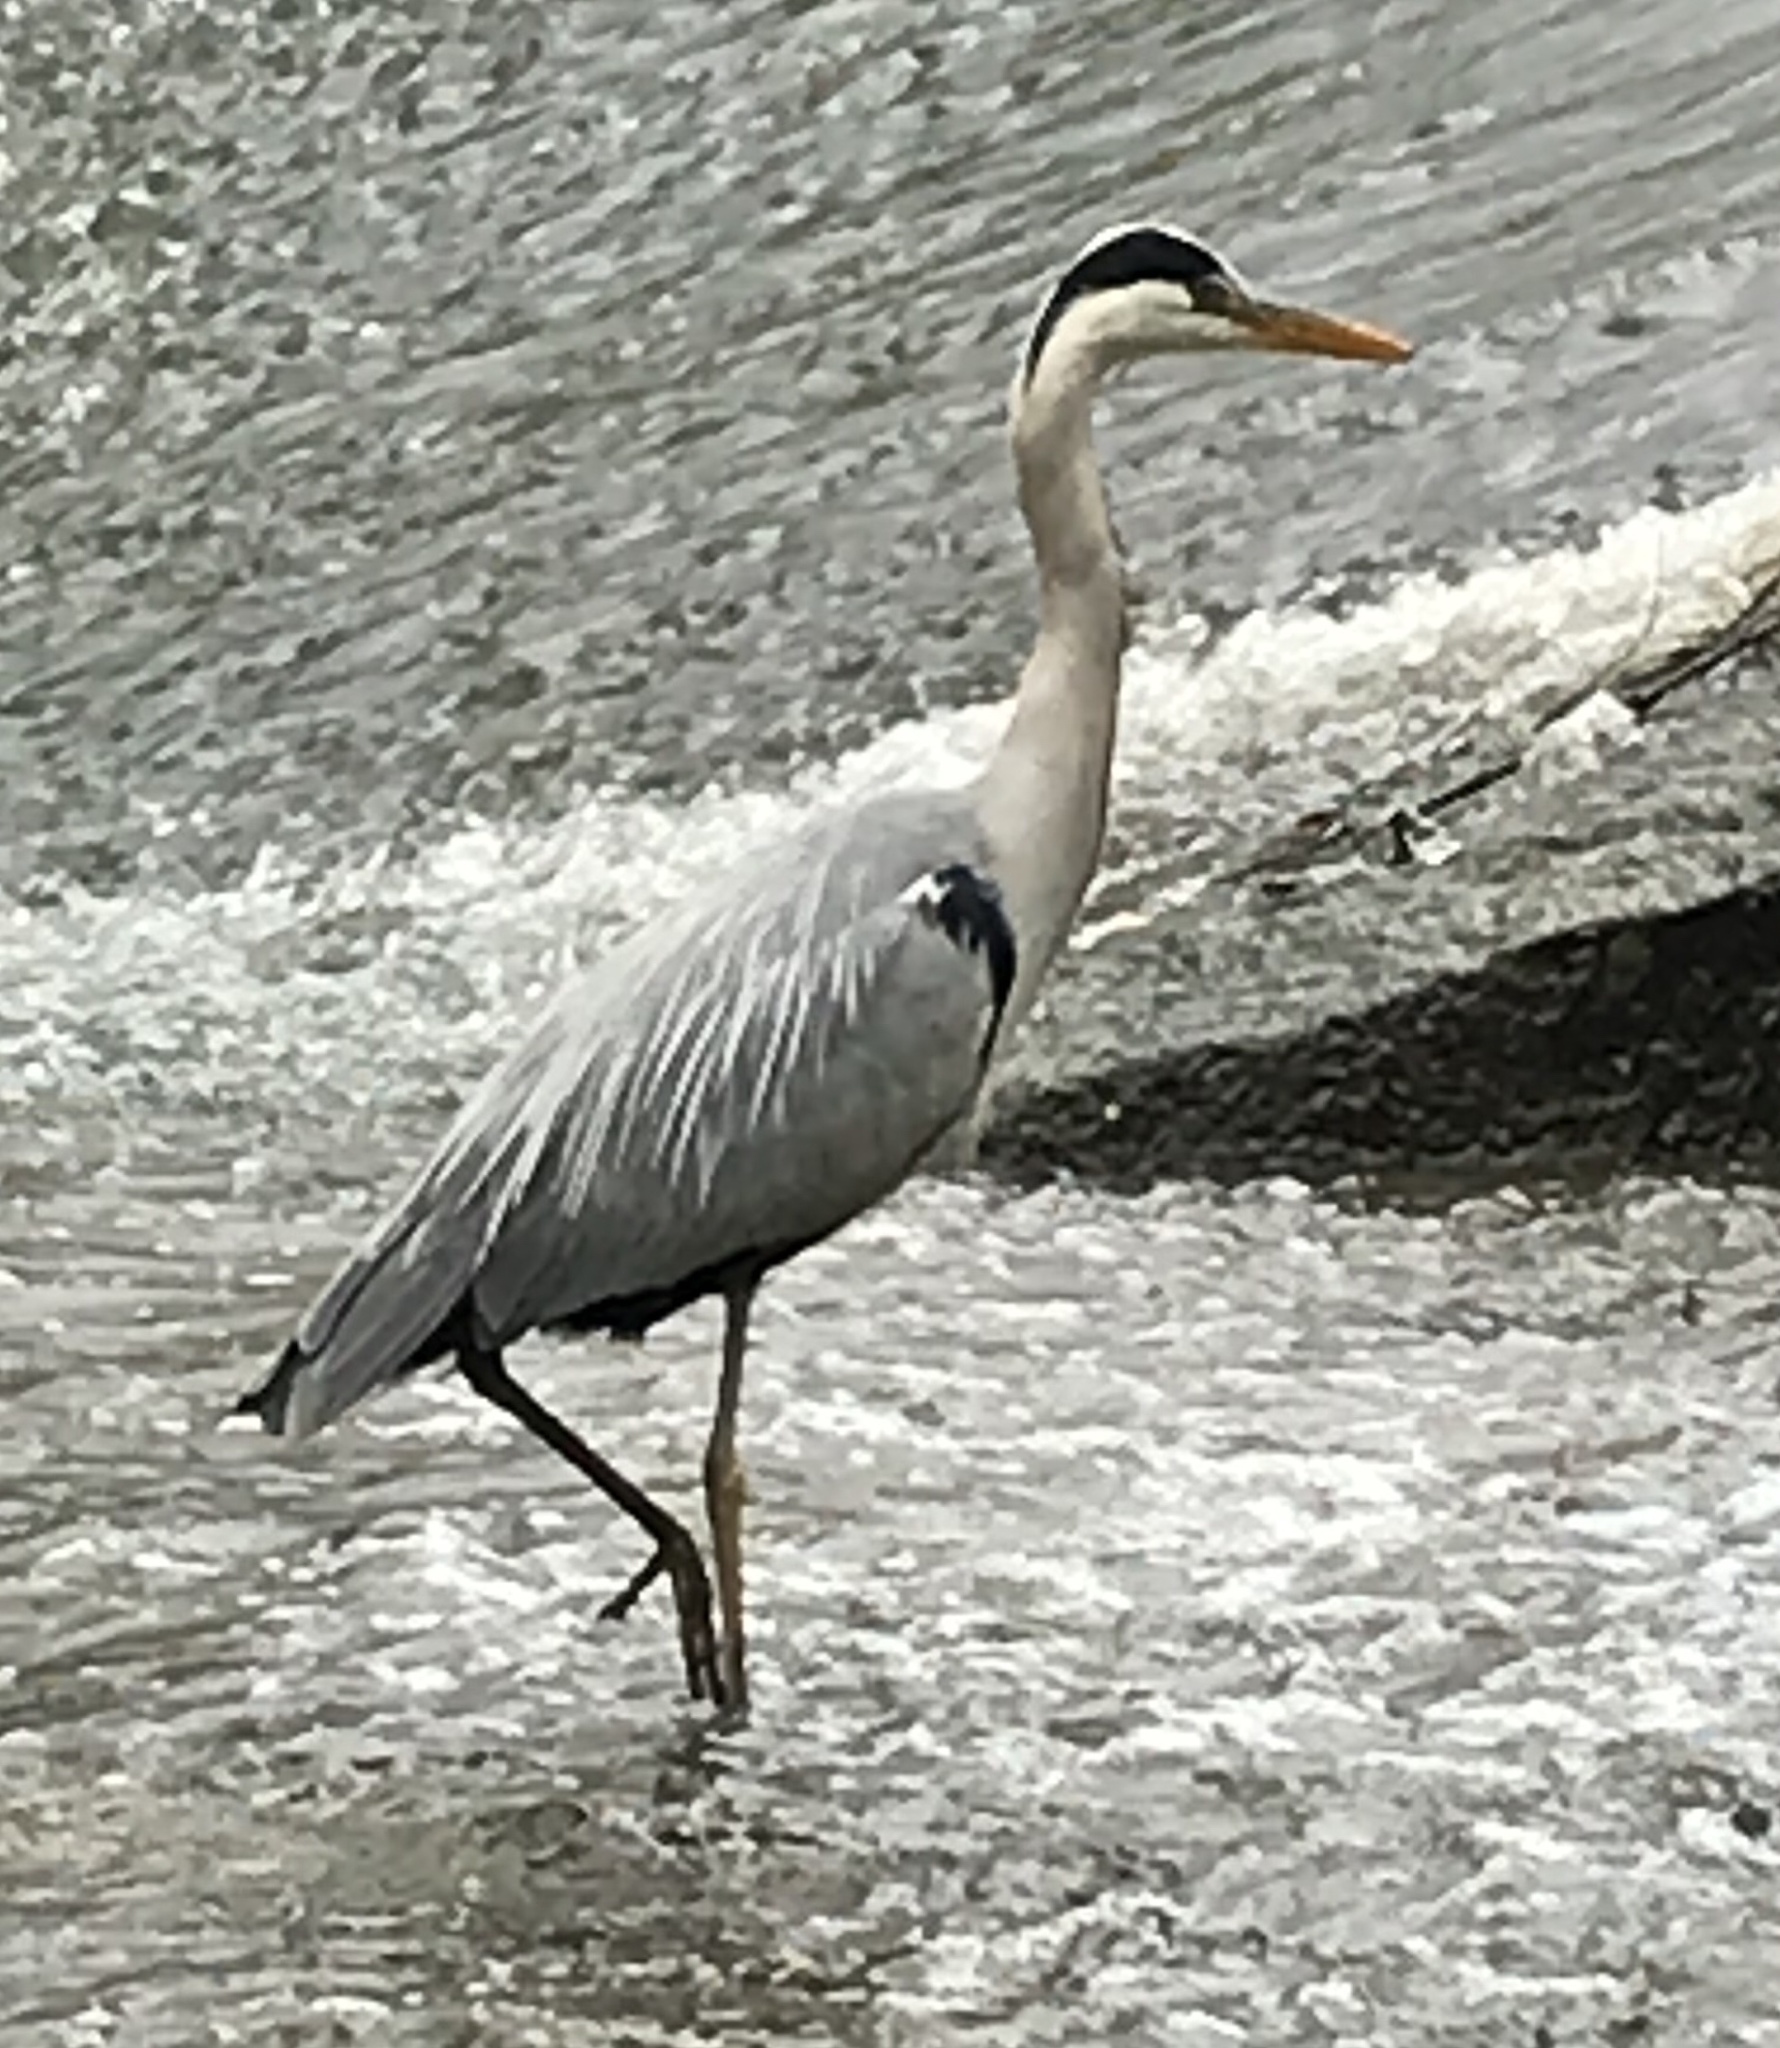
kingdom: Animalia
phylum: Chordata
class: Aves
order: Pelecaniformes
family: Ardeidae
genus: Ardea
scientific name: Ardea cinerea
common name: Grey heron
